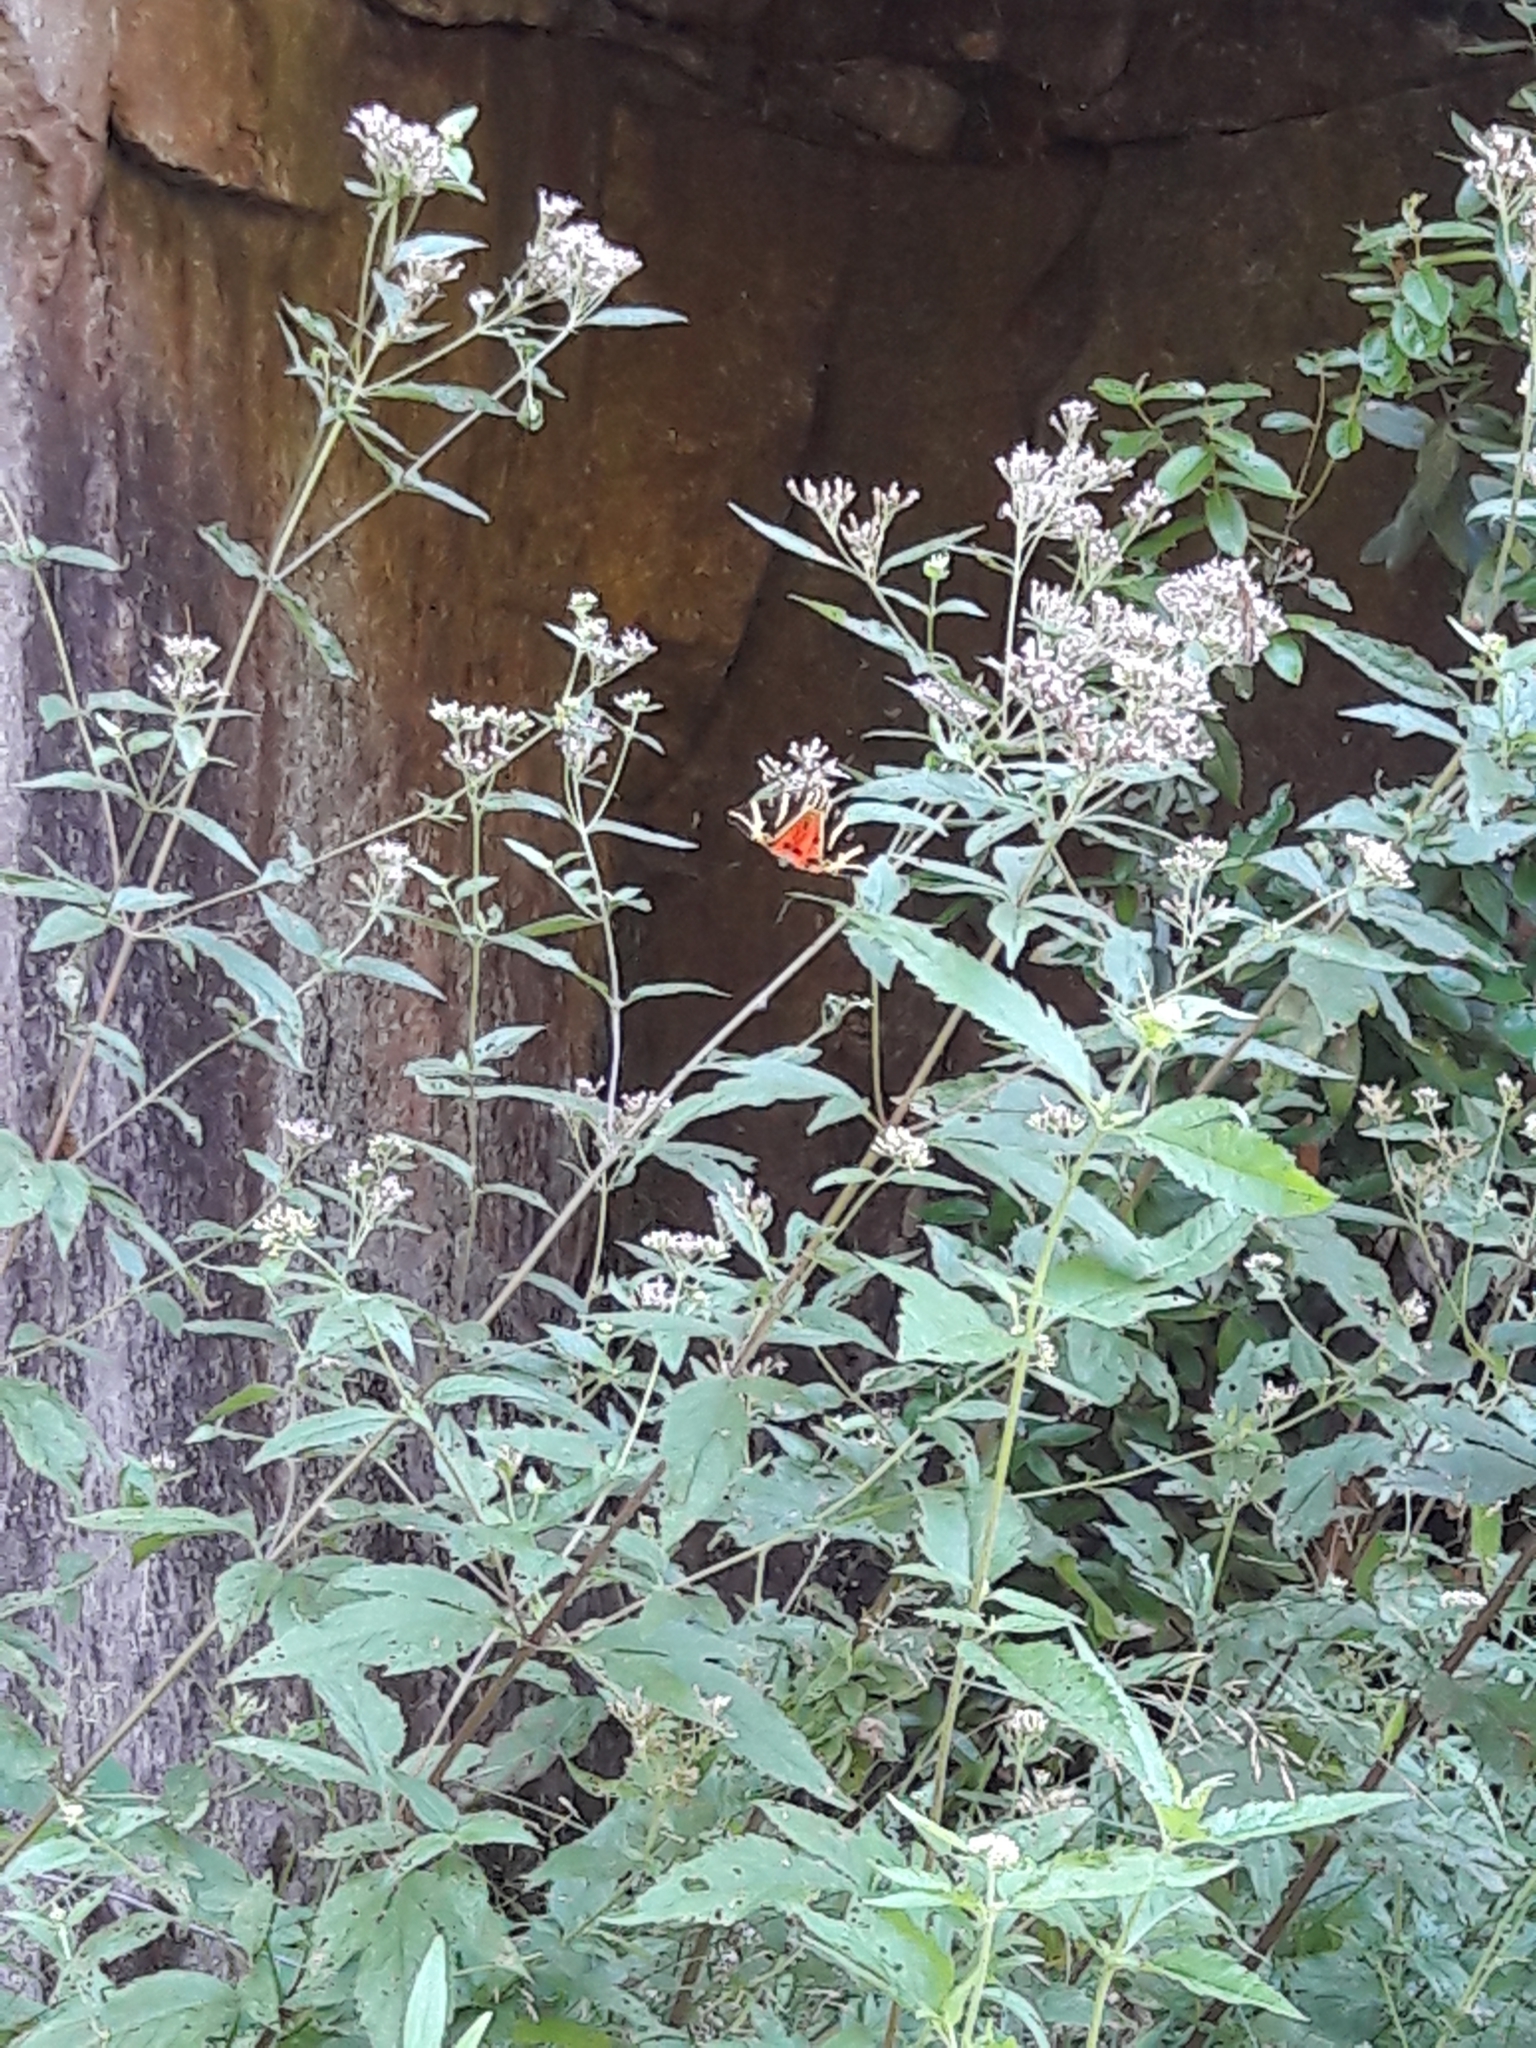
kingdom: Animalia
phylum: Arthropoda
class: Insecta
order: Lepidoptera
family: Erebidae
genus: Euplagia
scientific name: Euplagia quadripunctaria
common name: Jersey tiger
